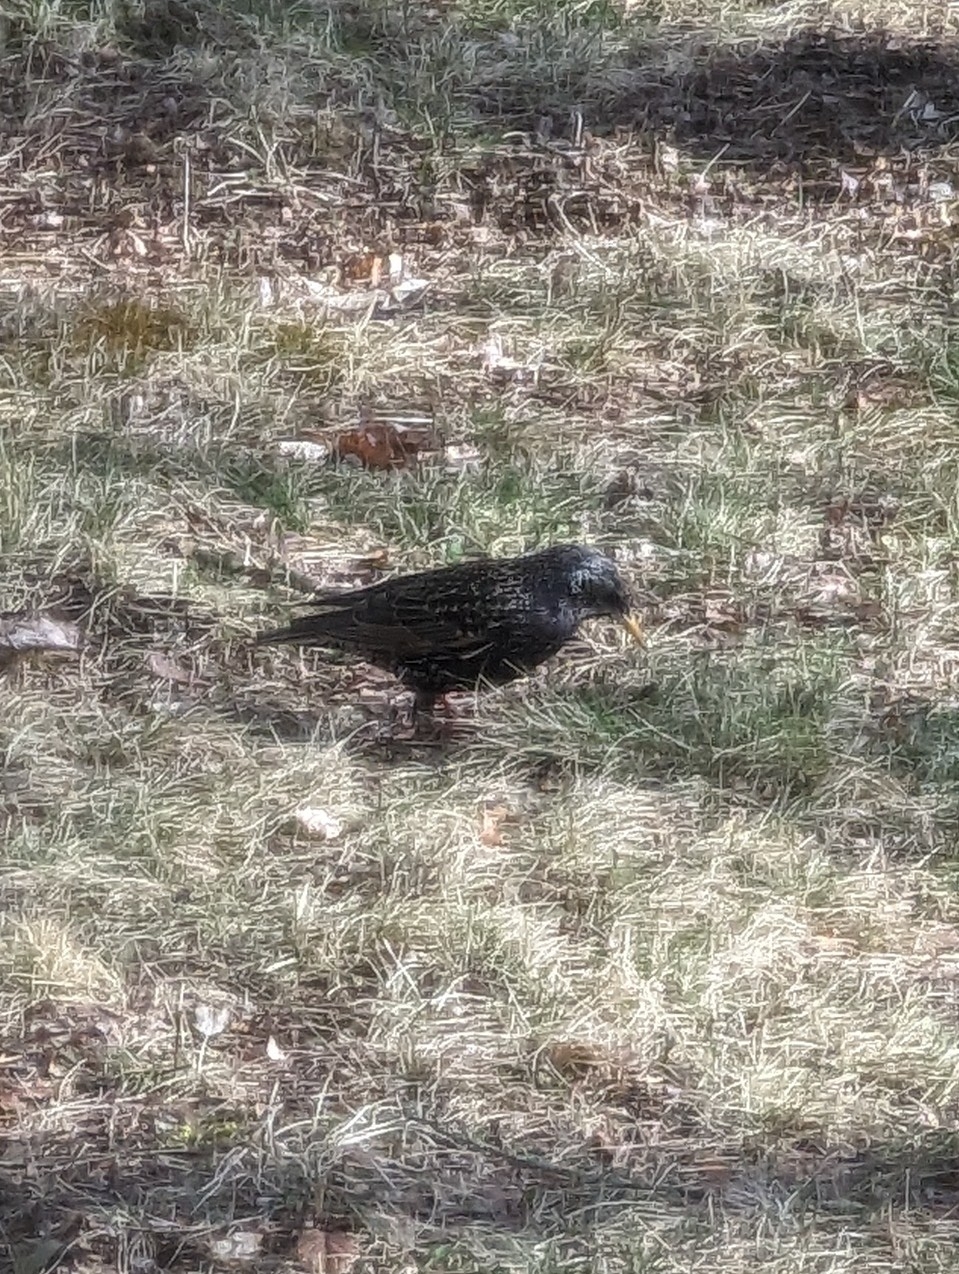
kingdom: Animalia
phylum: Chordata
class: Aves
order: Passeriformes
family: Sturnidae
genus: Sturnus
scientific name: Sturnus vulgaris
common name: Common starling
